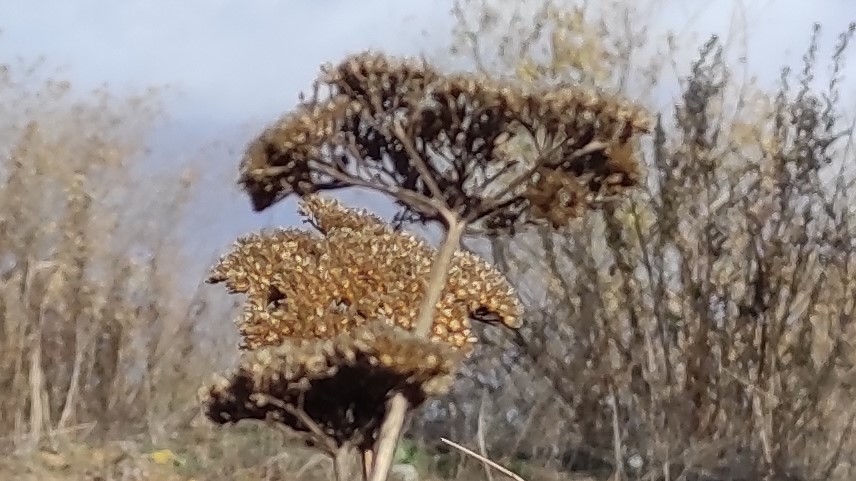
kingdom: Plantae
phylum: Tracheophyta
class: Magnoliopsida
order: Asterales
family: Asteraceae
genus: Achillea
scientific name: Achillea filipendulina
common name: Fernleaf yarrow
